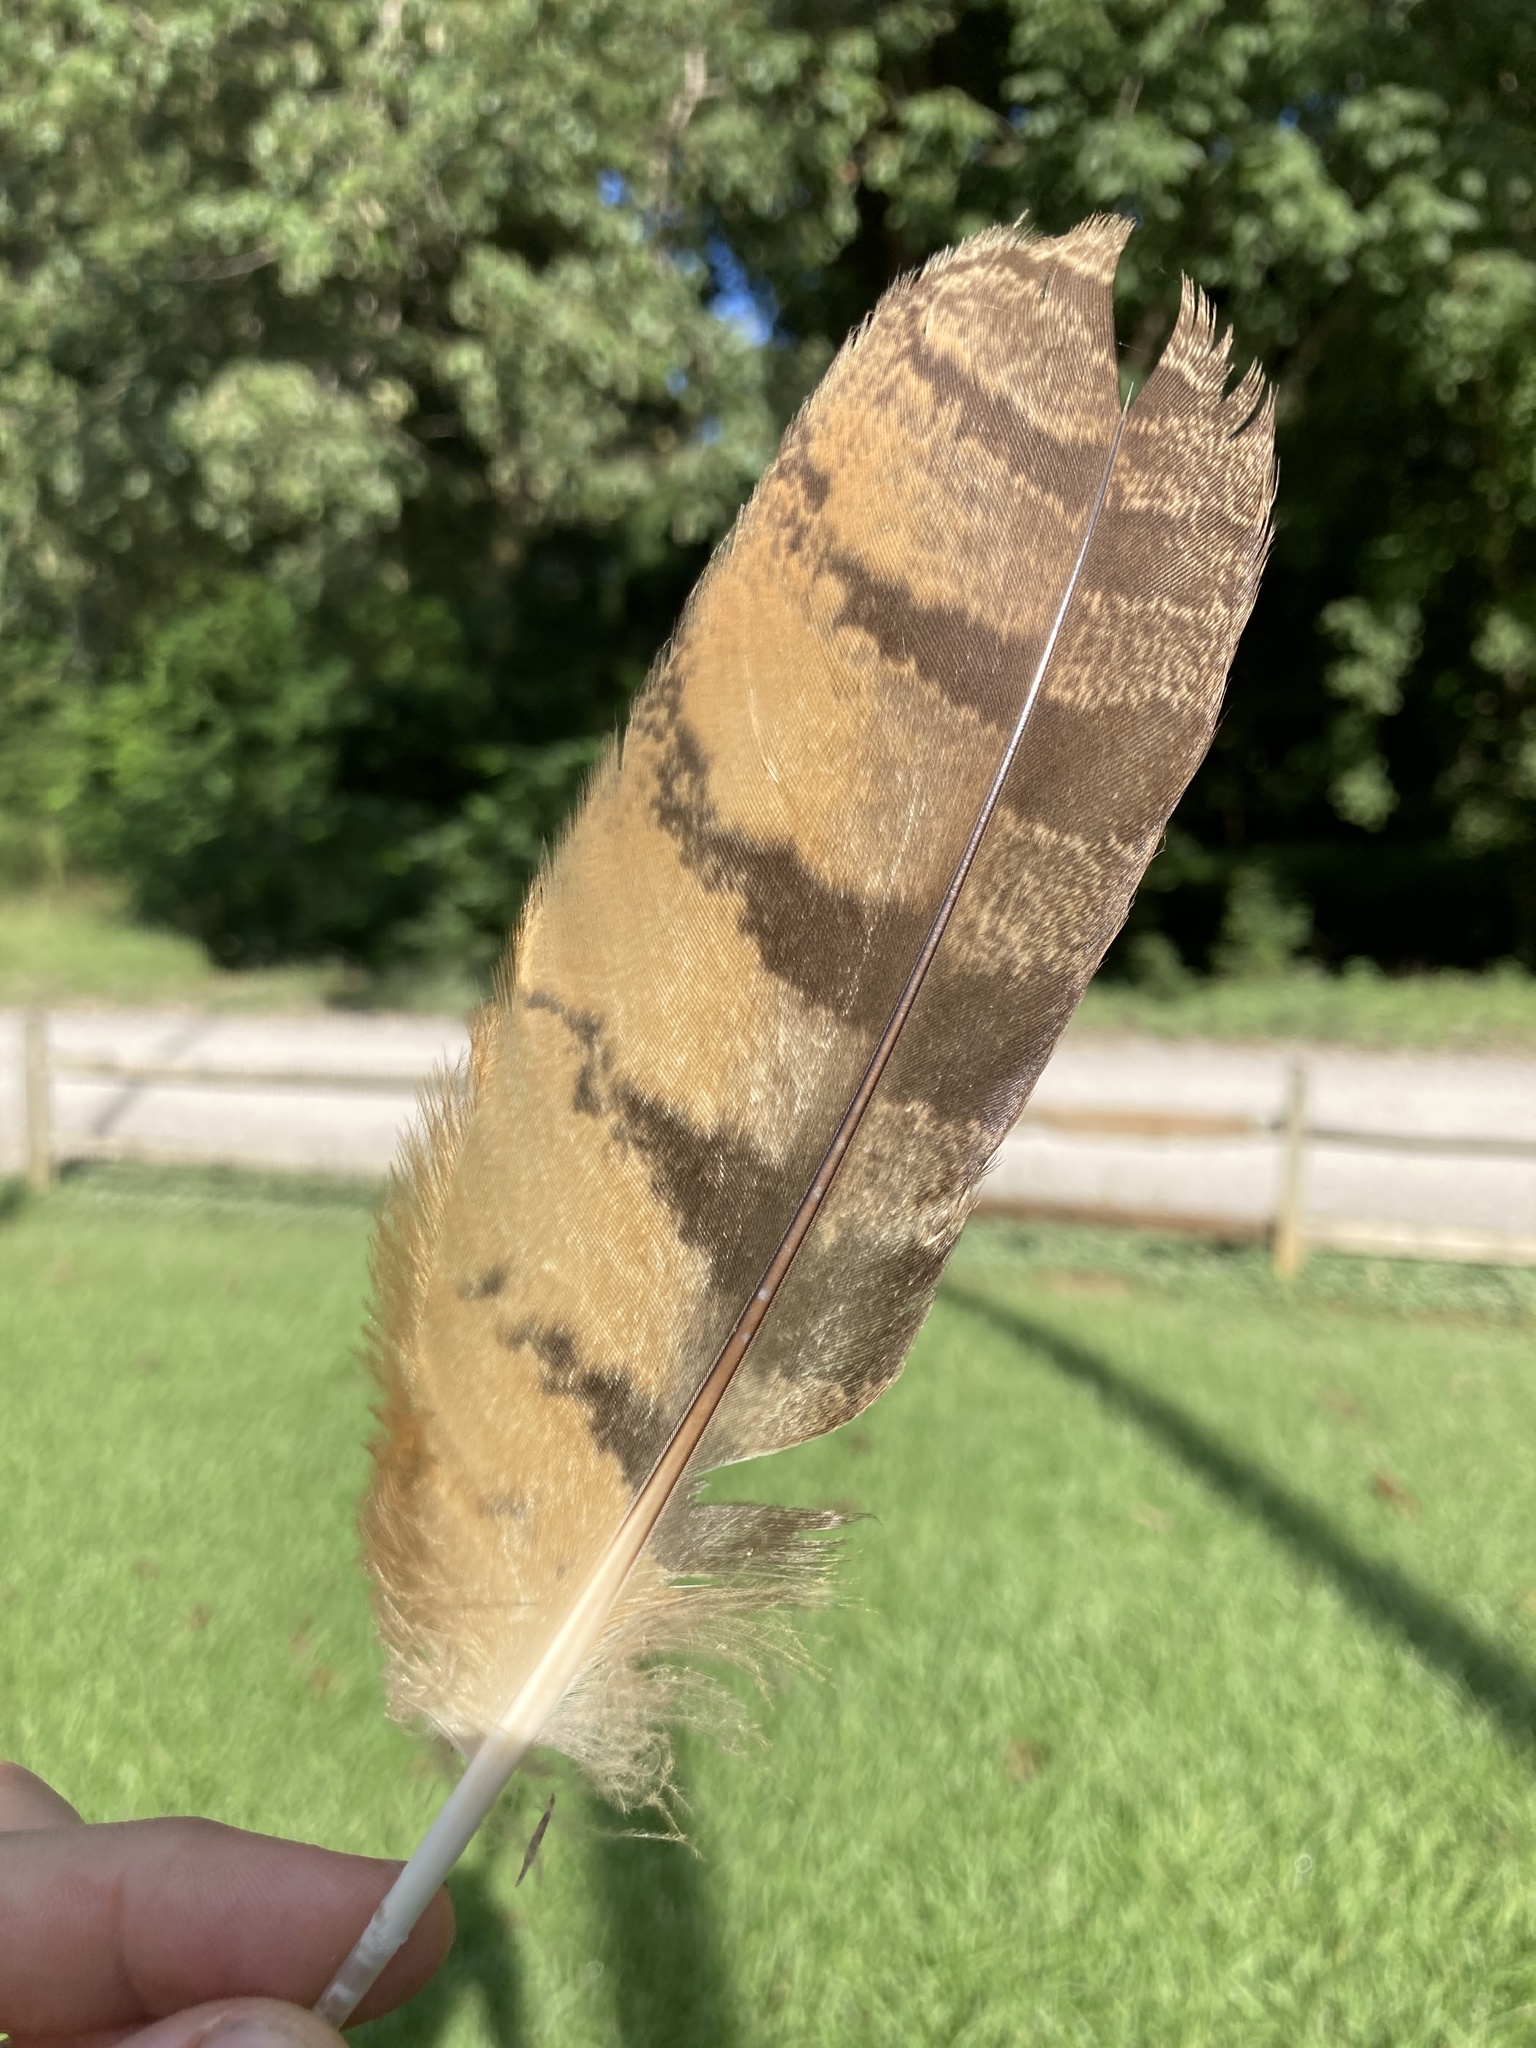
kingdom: Animalia
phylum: Chordata
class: Aves
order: Strigiformes
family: Strigidae
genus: Bubo
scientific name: Bubo virginianus
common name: Great horned owl
